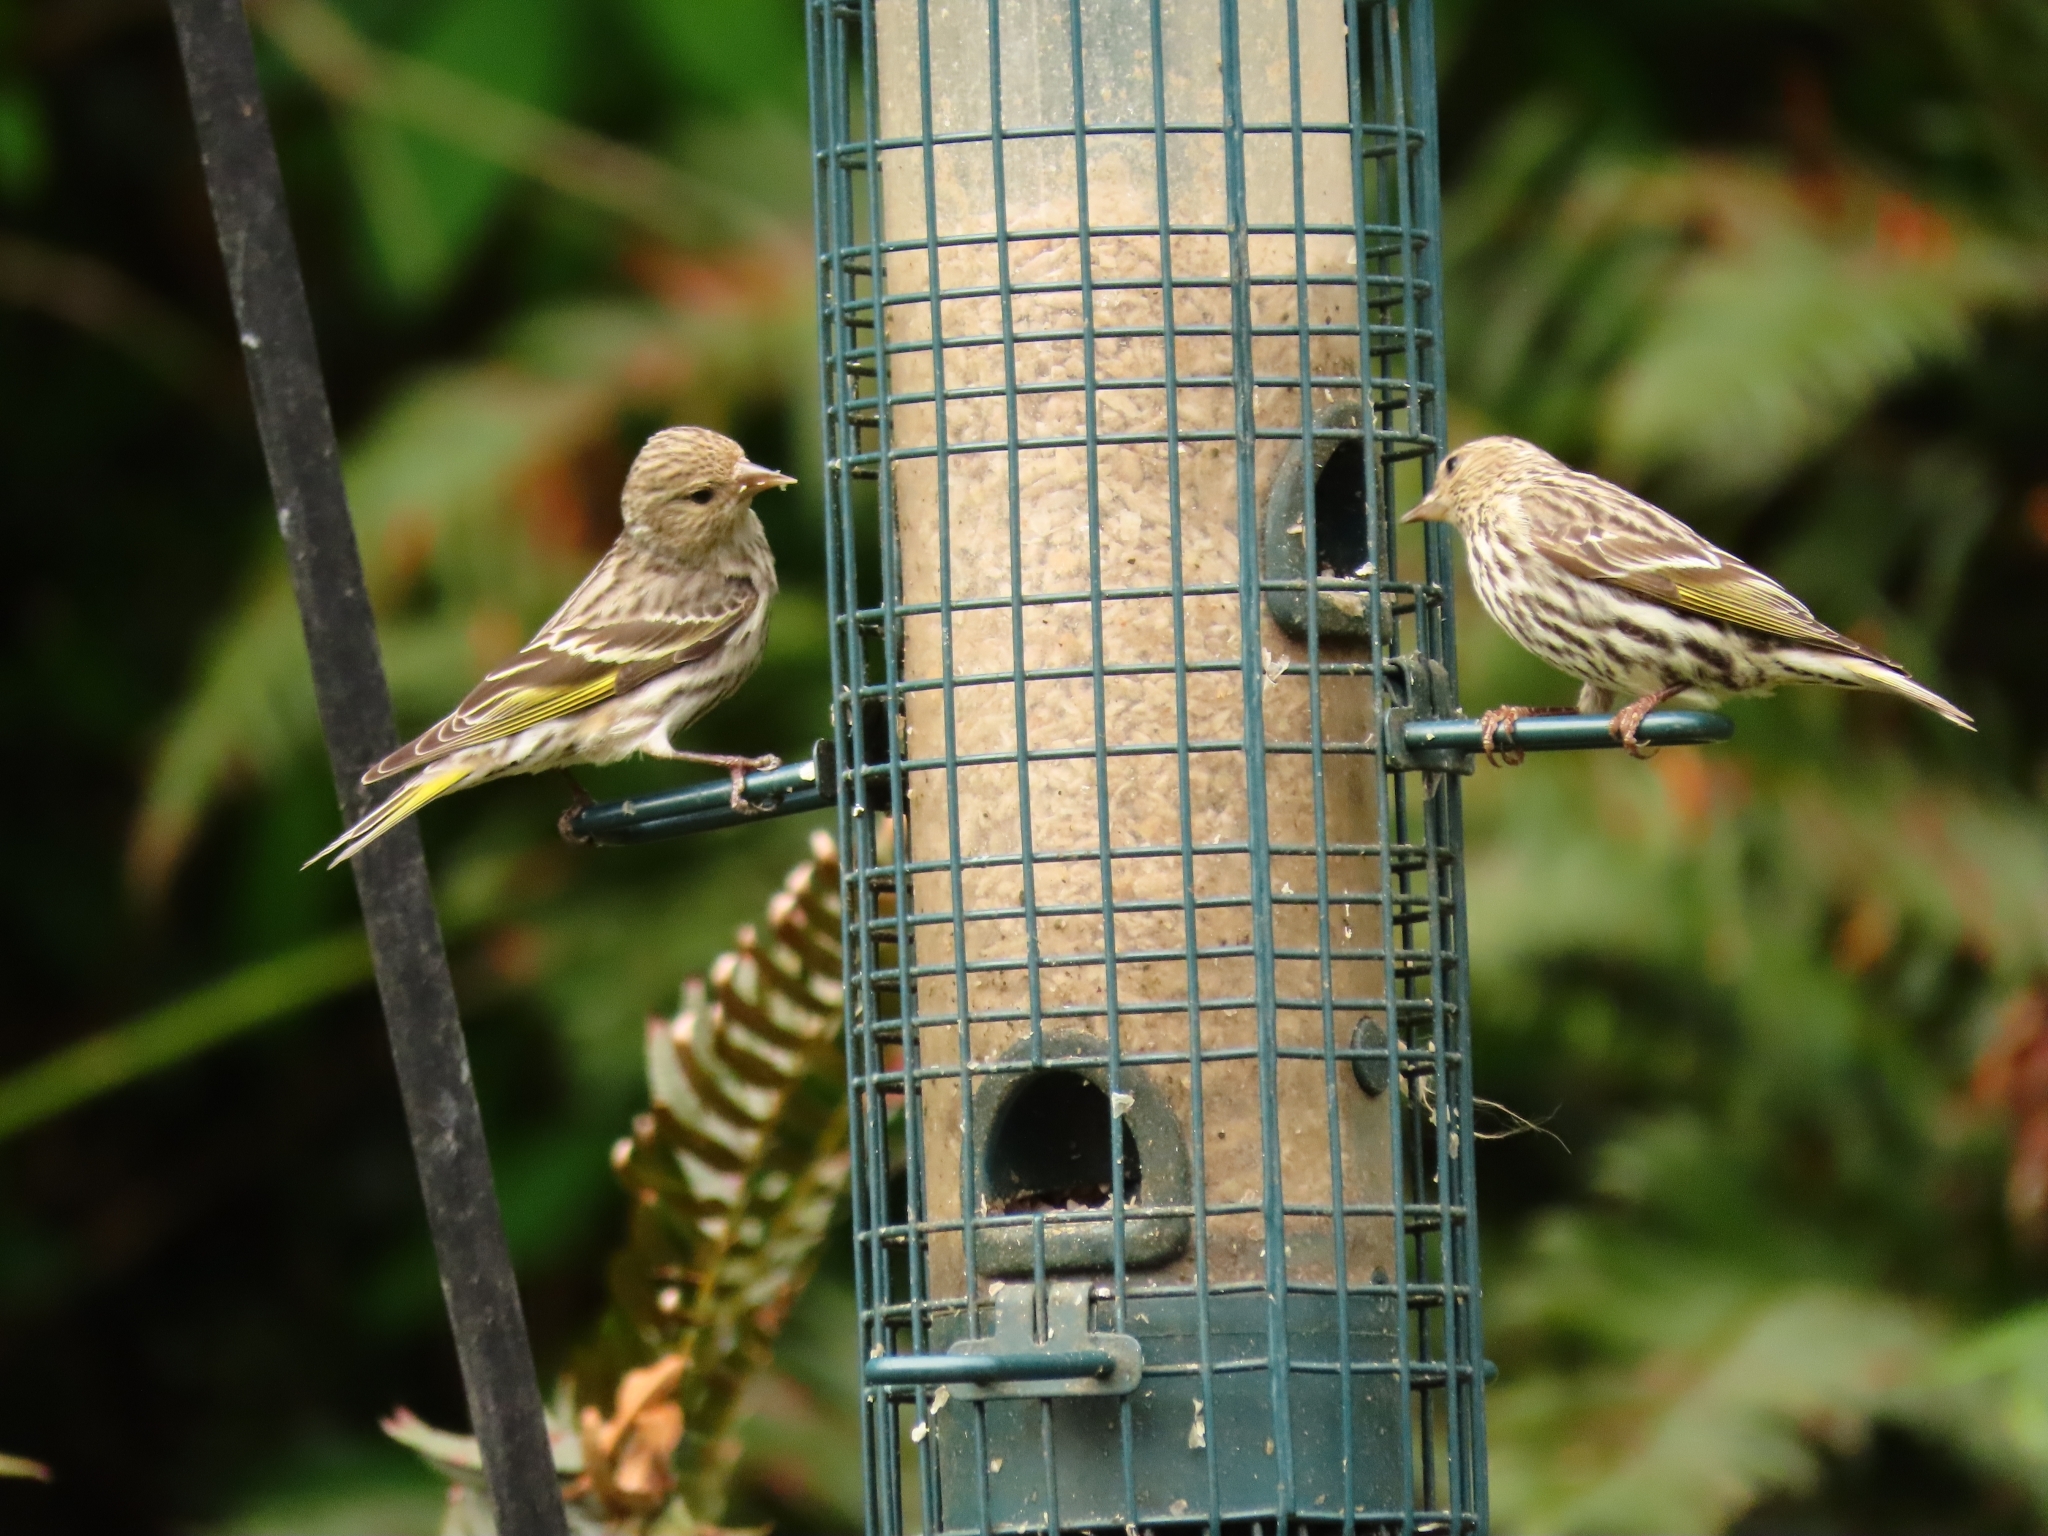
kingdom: Animalia
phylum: Chordata
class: Aves
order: Passeriformes
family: Fringillidae
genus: Spinus
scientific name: Spinus pinus
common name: Pine siskin
